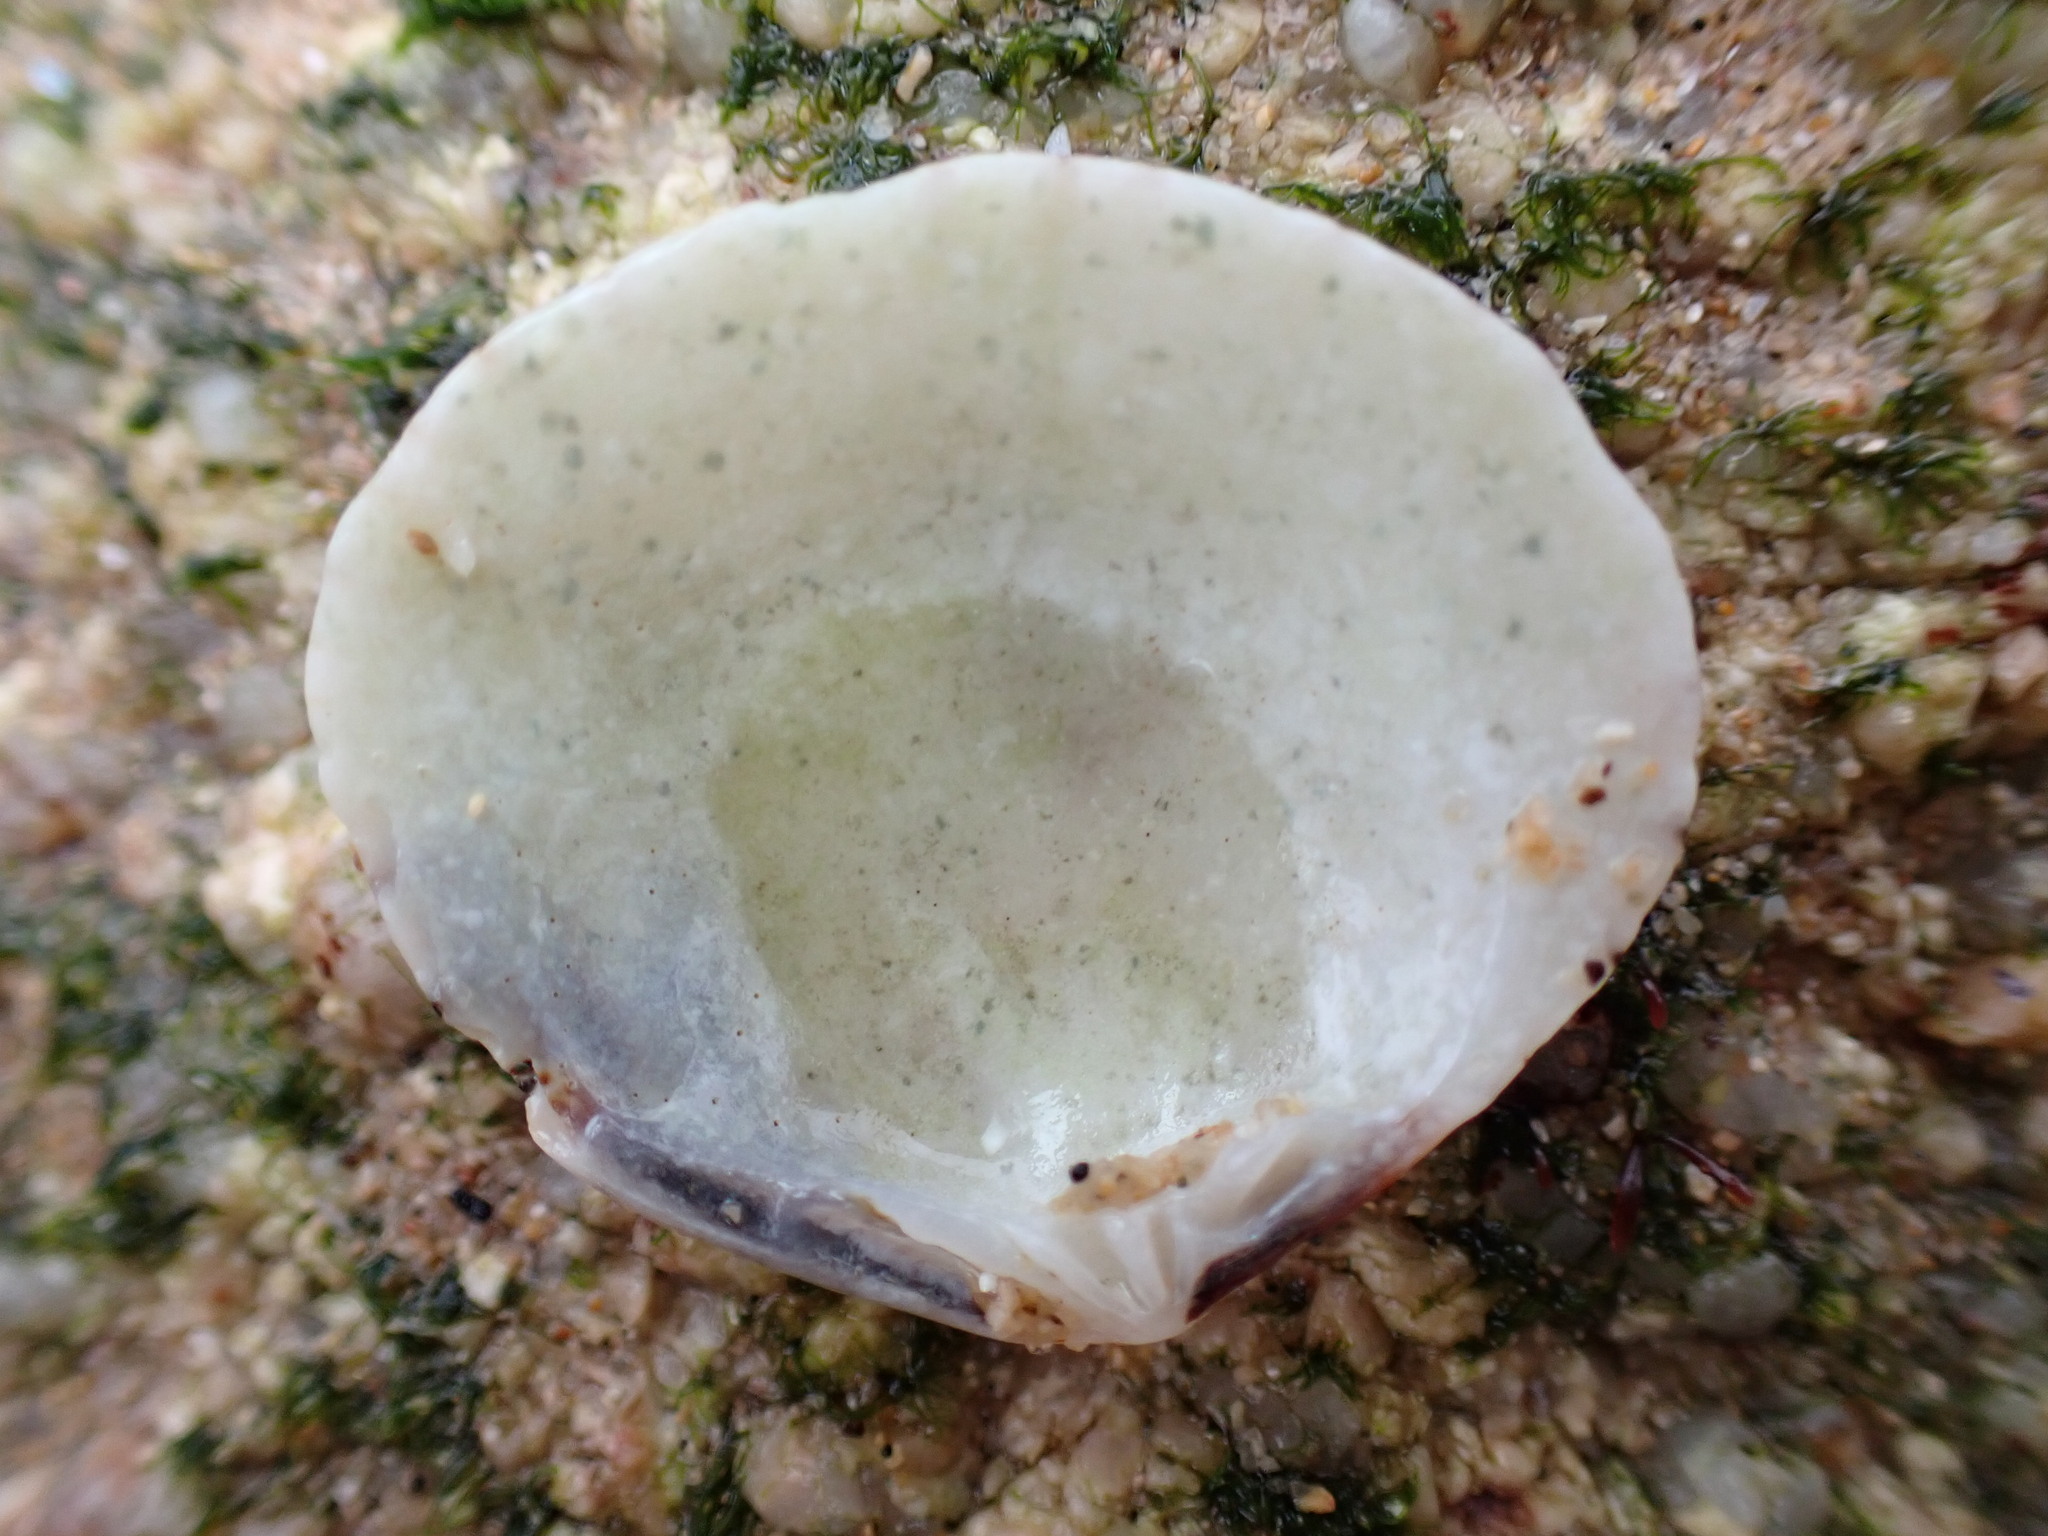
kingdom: Animalia
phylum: Mollusca
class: Bivalvia
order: Venerida
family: Veneridae
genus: Gafrarium
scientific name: Gafrarium divaricatum
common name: Forked venus
